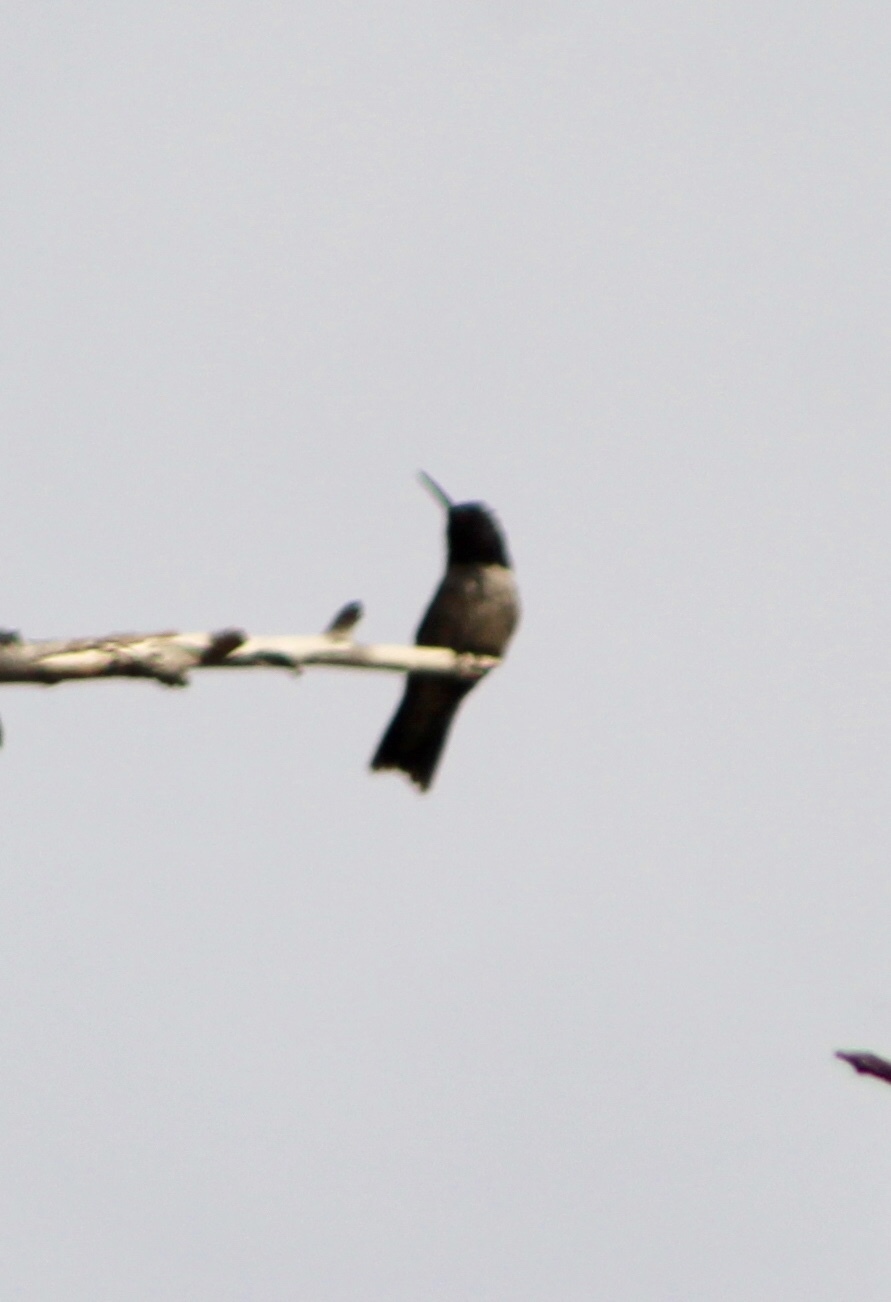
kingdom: Animalia
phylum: Chordata
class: Aves
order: Apodiformes
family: Trochilidae
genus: Archilochus
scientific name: Archilochus alexandri
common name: Black-chinned hummingbird
